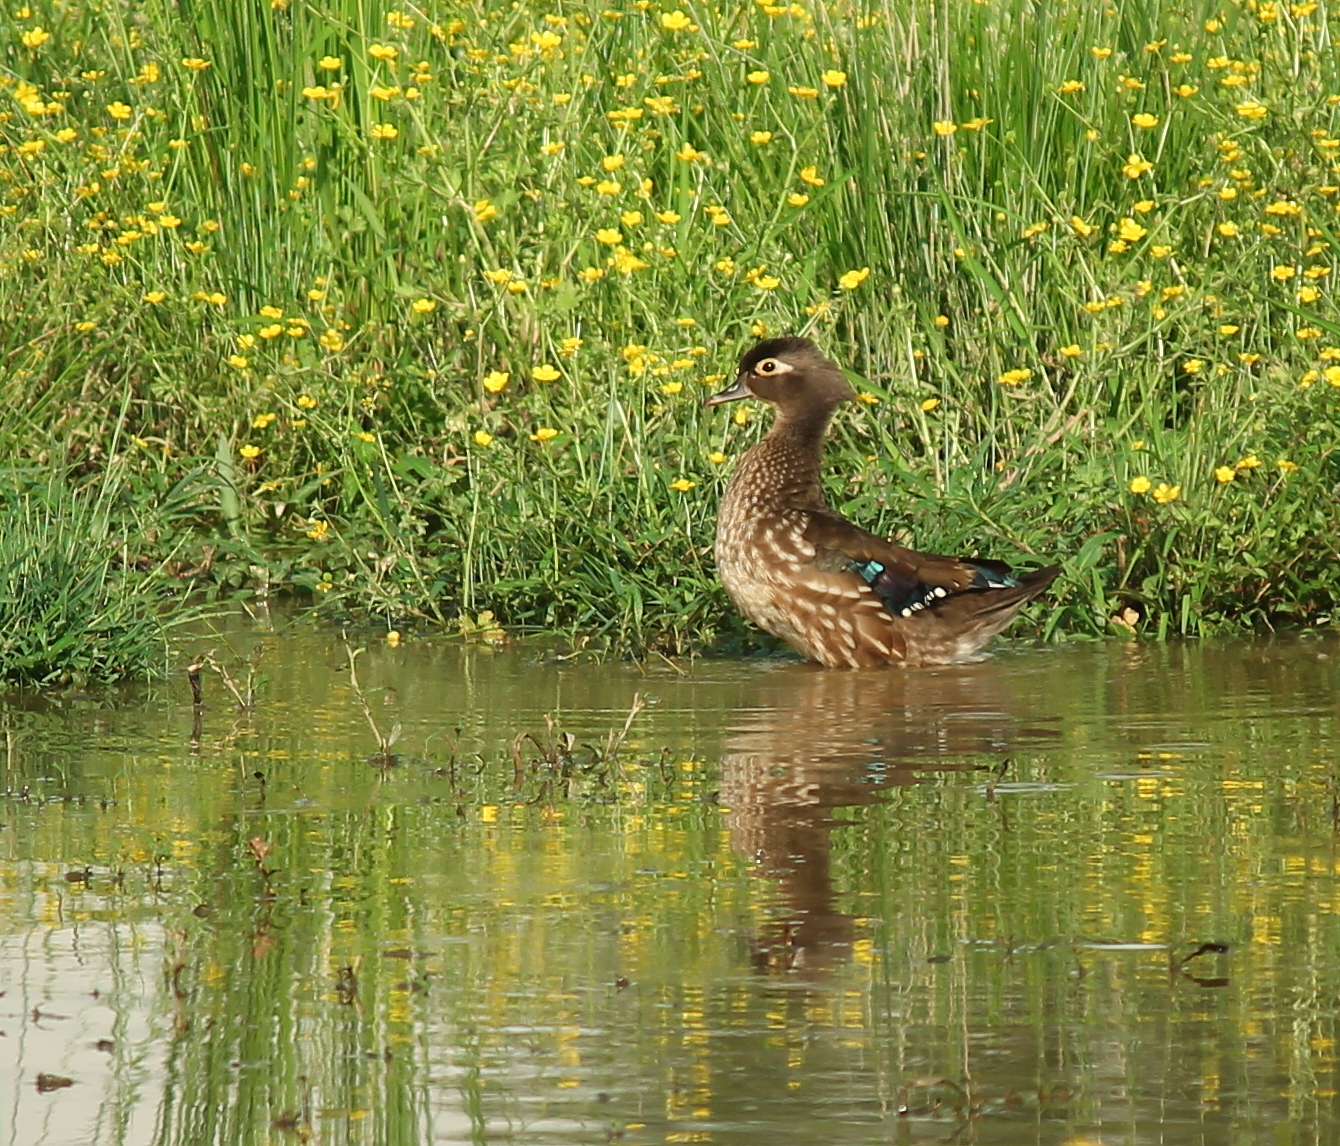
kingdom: Animalia
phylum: Chordata
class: Aves
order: Anseriformes
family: Anatidae
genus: Aix
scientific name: Aix sponsa
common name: Wood duck
